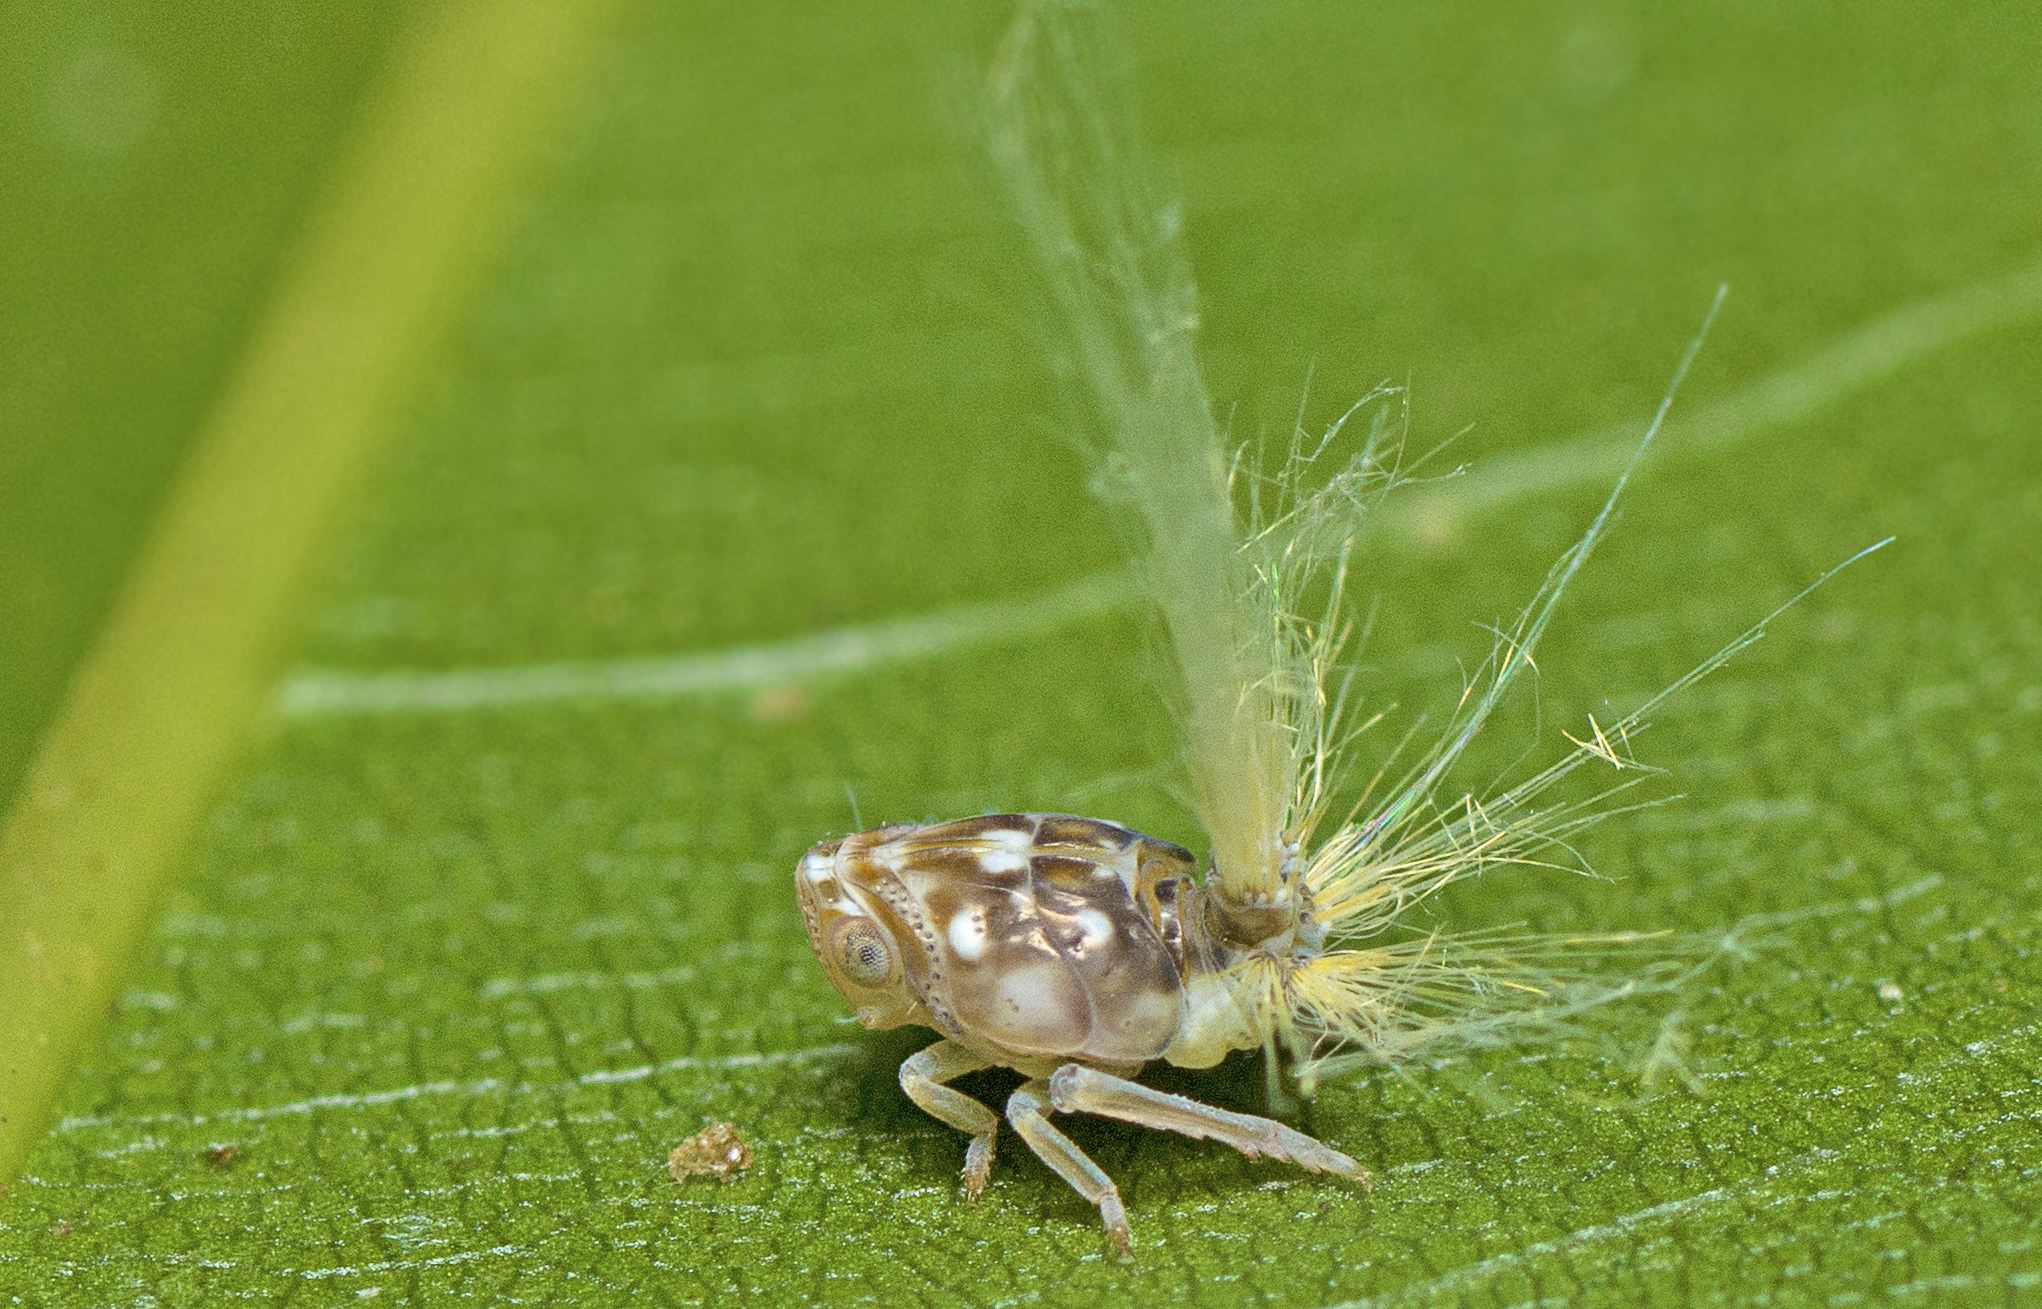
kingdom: Animalia
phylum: Arthropoda
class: Insecta
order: Hemiptera
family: Ricaniidae
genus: Scolypopa
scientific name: Scolypopa australis
